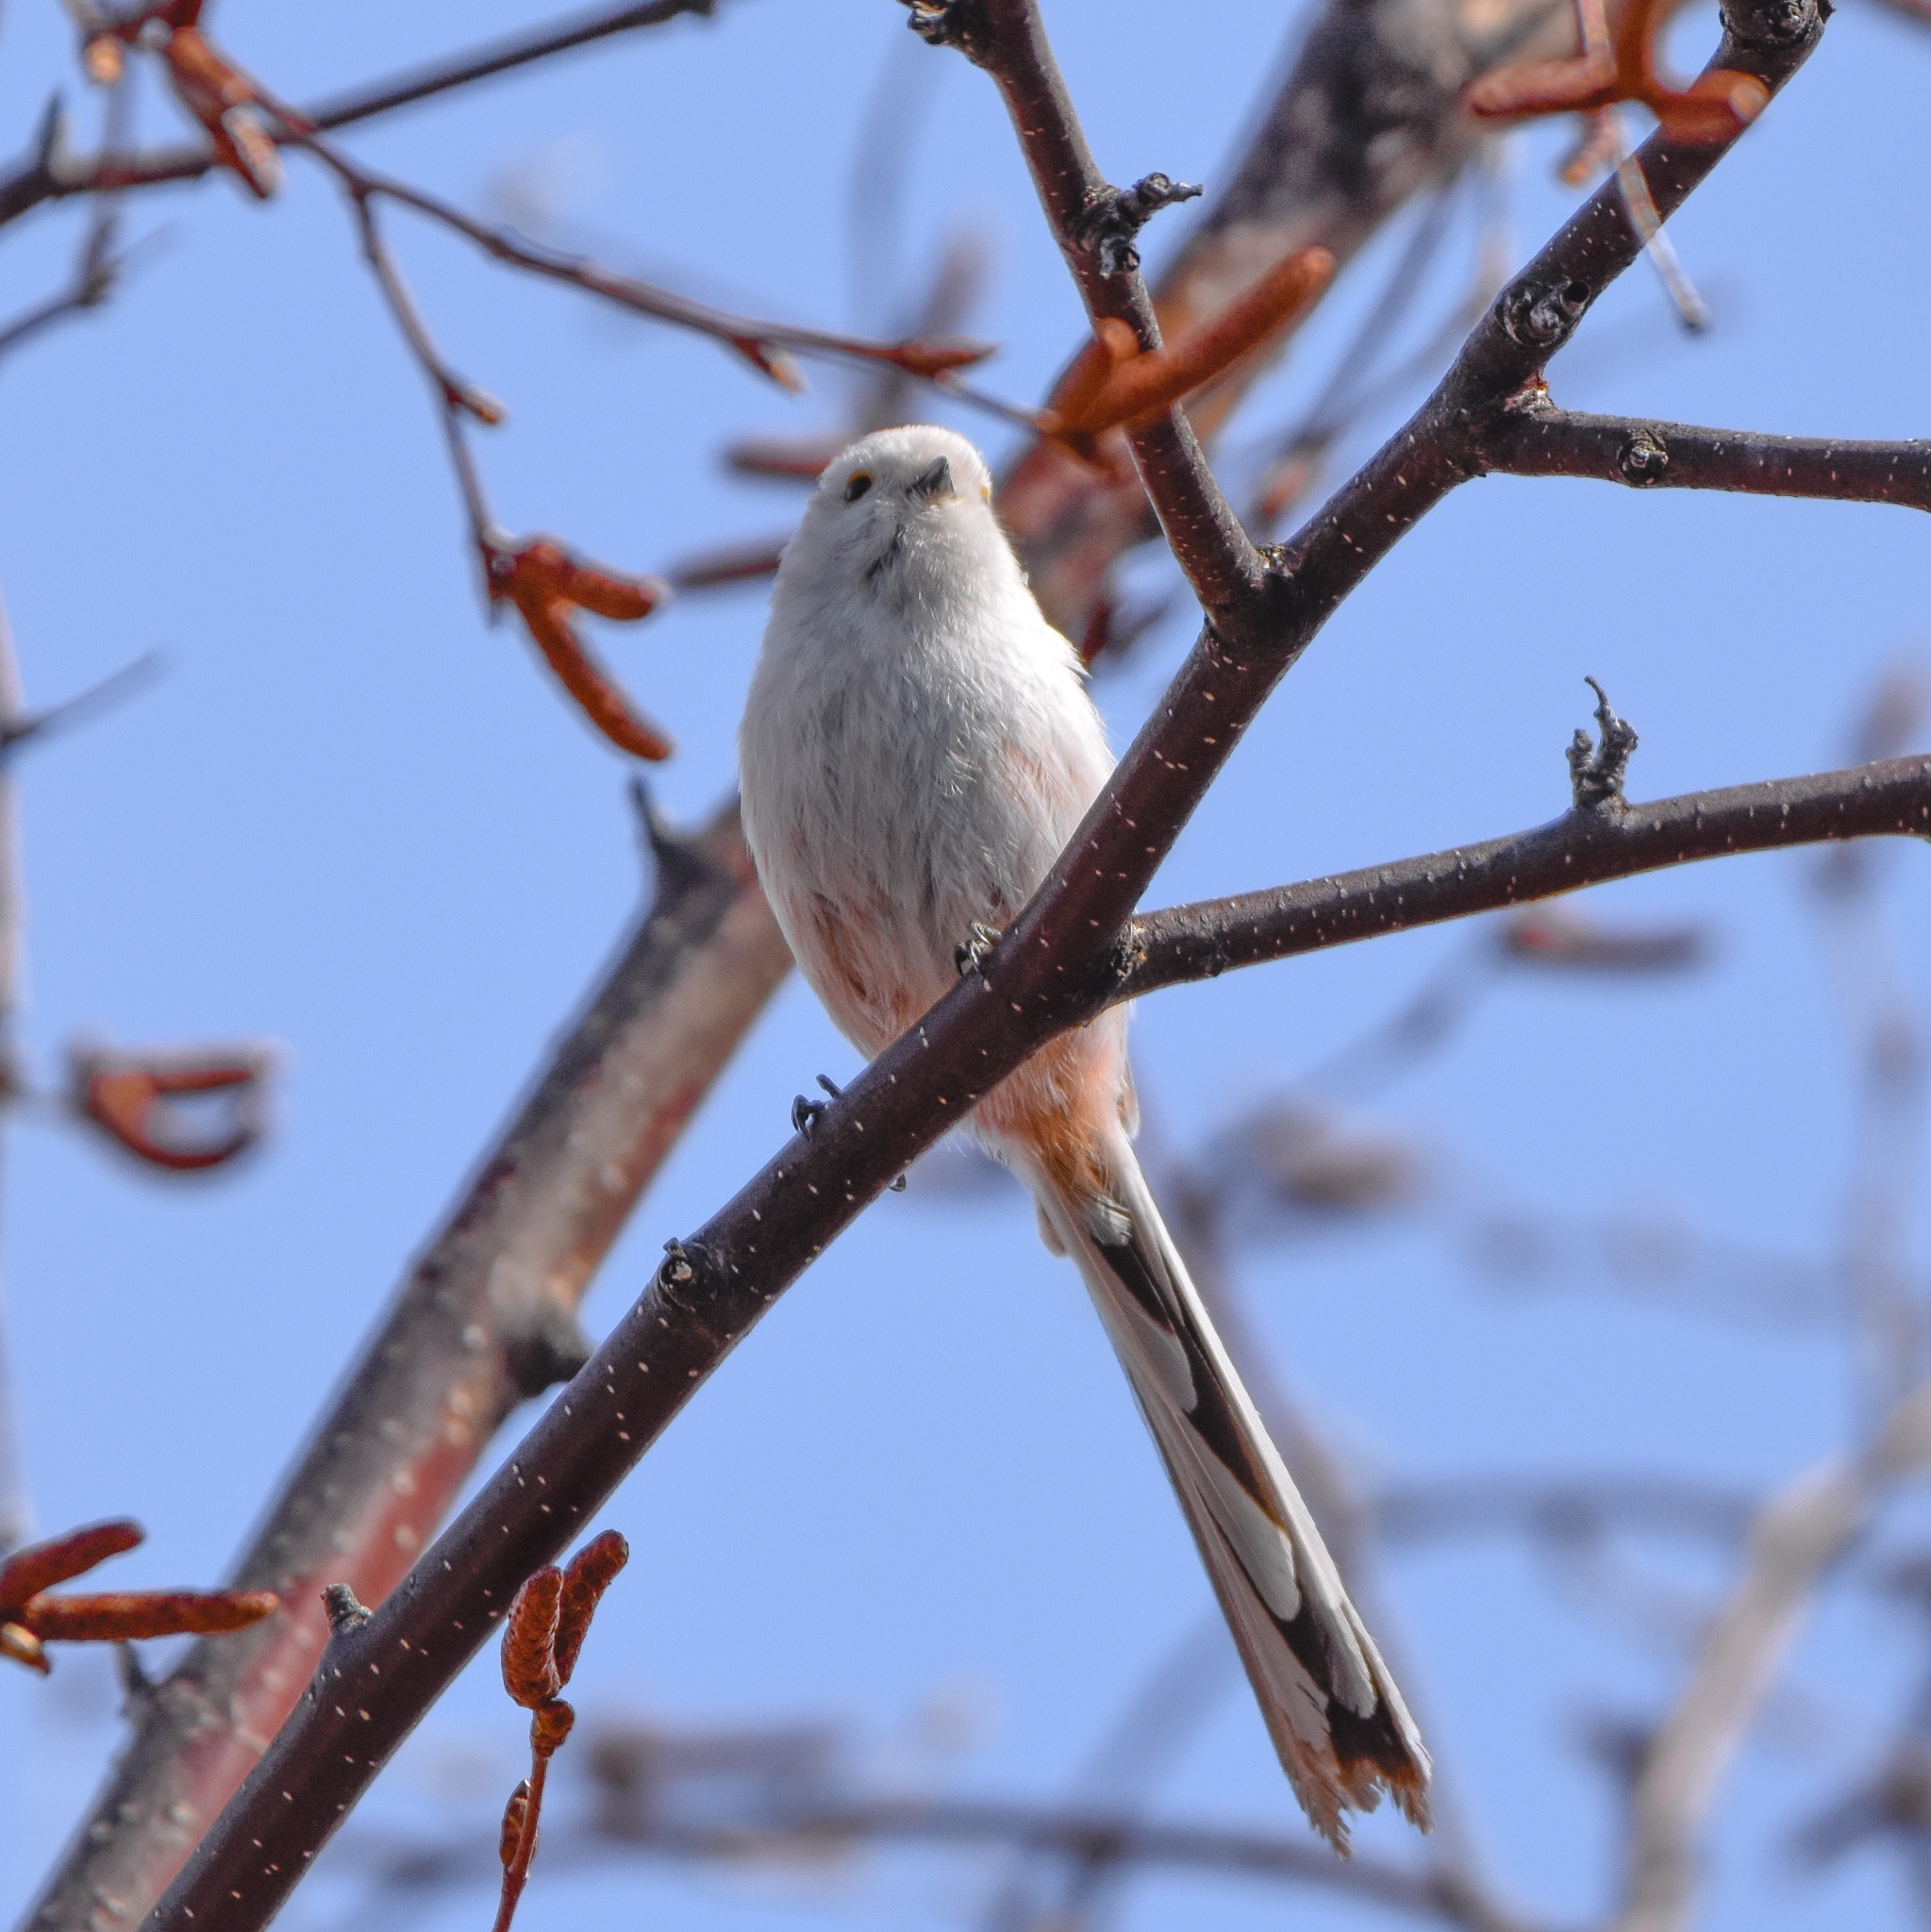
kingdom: Animalia
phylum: Chordata
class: Aves
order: Passeriformes
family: Aegithalidae
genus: Aegithalos
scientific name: Aegithalos caudatus
